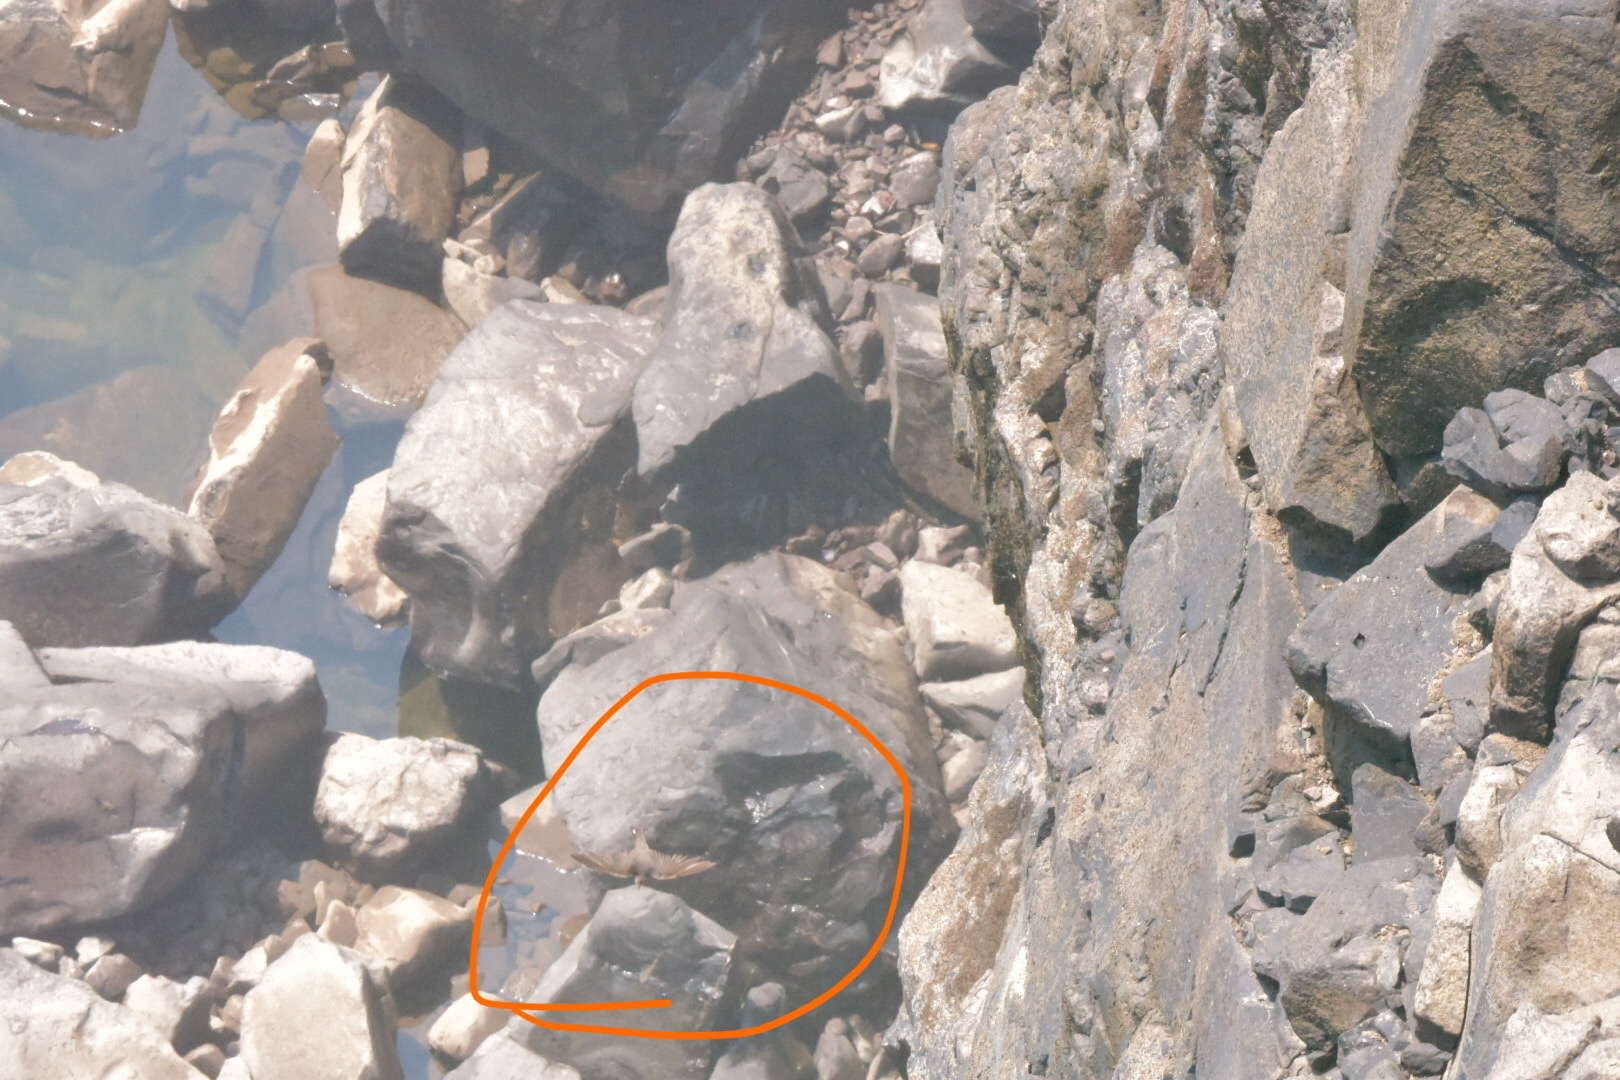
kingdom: Animalia
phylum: Chordata
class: Aves
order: Passeriformes
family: Hirundinidae
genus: Ptyonoprogne
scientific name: Ptyonoprogne fuligula
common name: Rock martin
